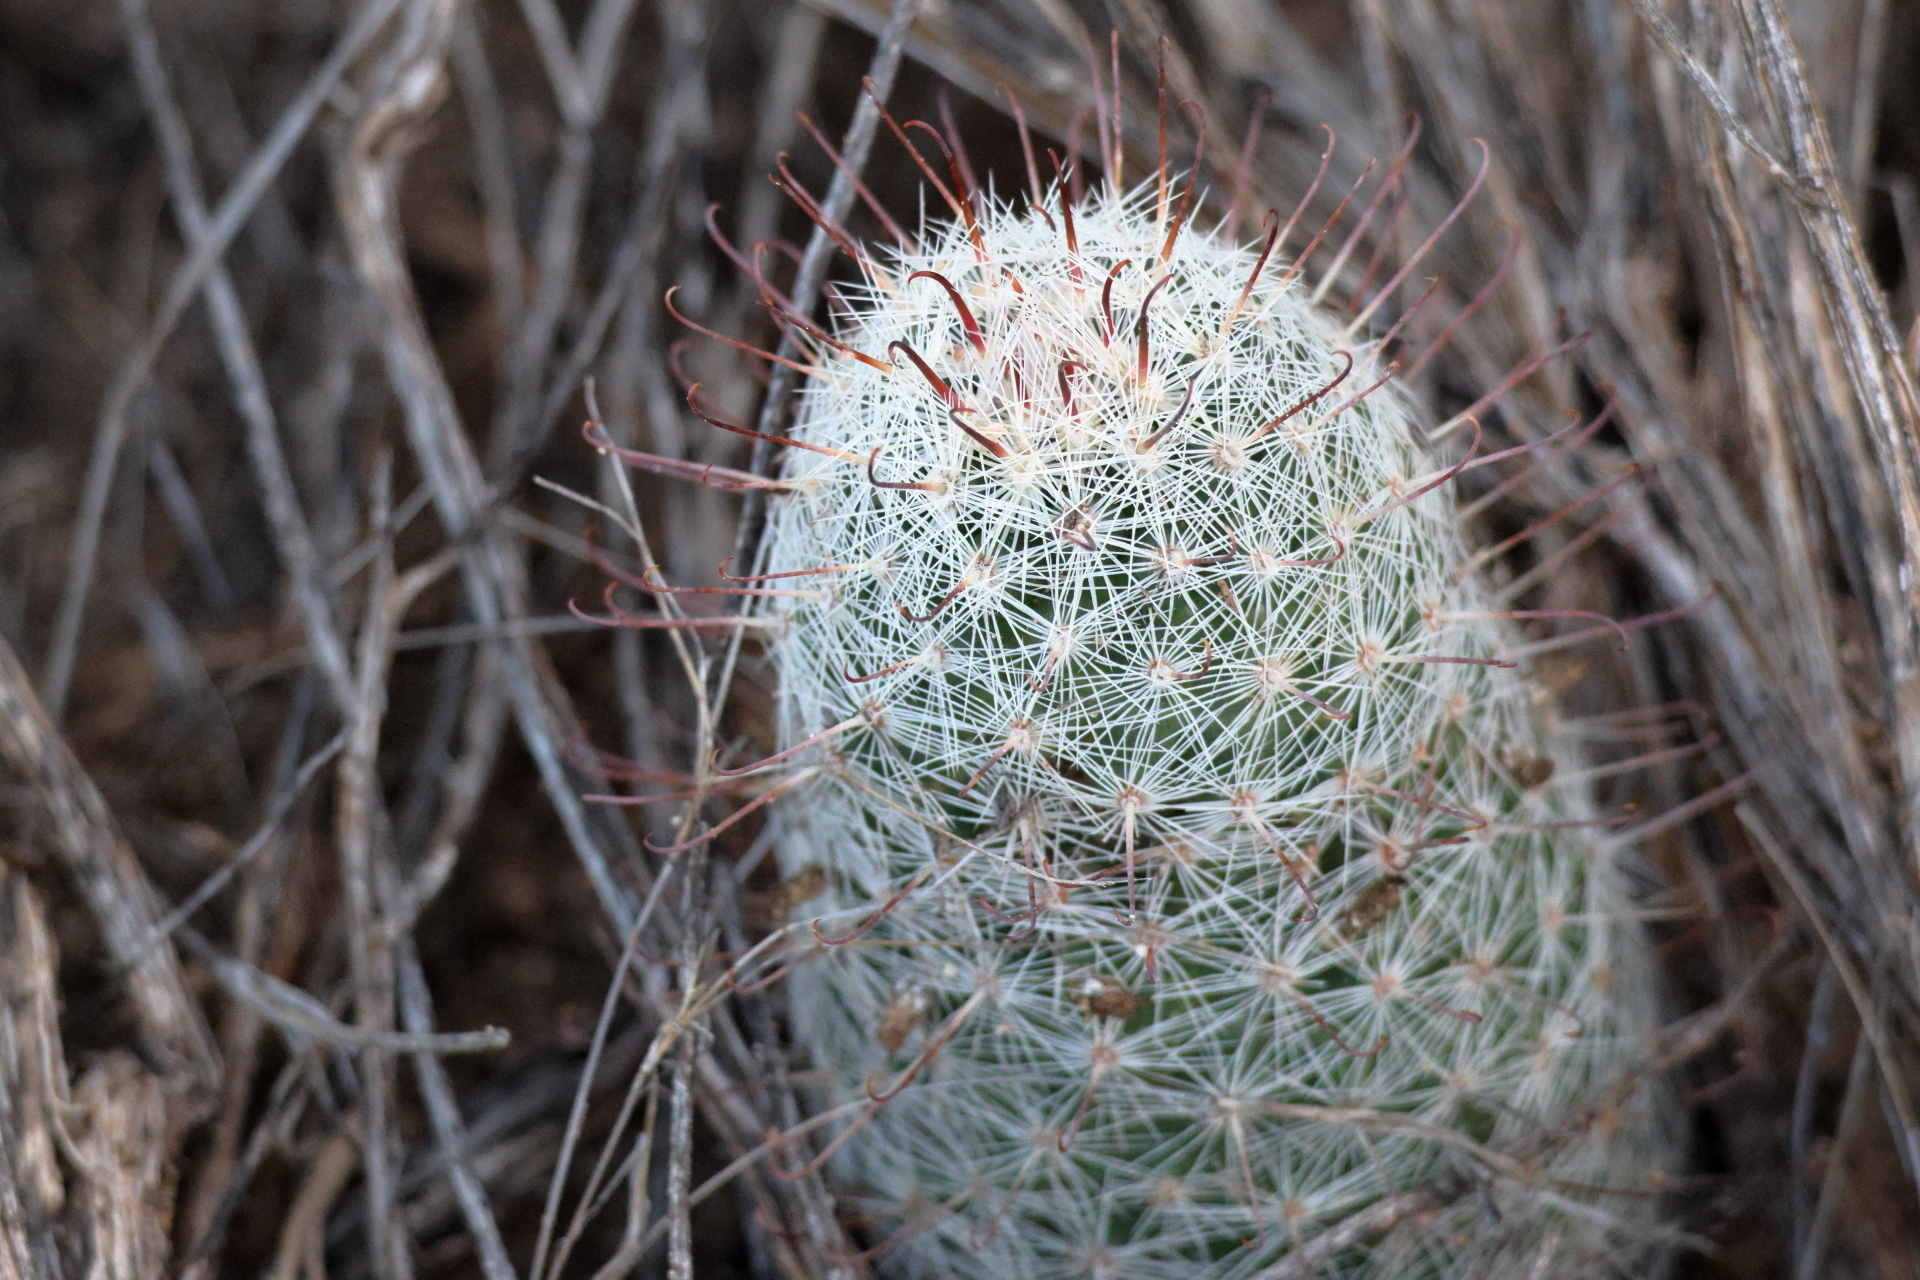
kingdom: Plantae
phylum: Tracheophyta
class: Magnoliopsida
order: Caryophyllales
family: Cactaceae
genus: Cochemiea
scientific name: Cochemiea grahamii
